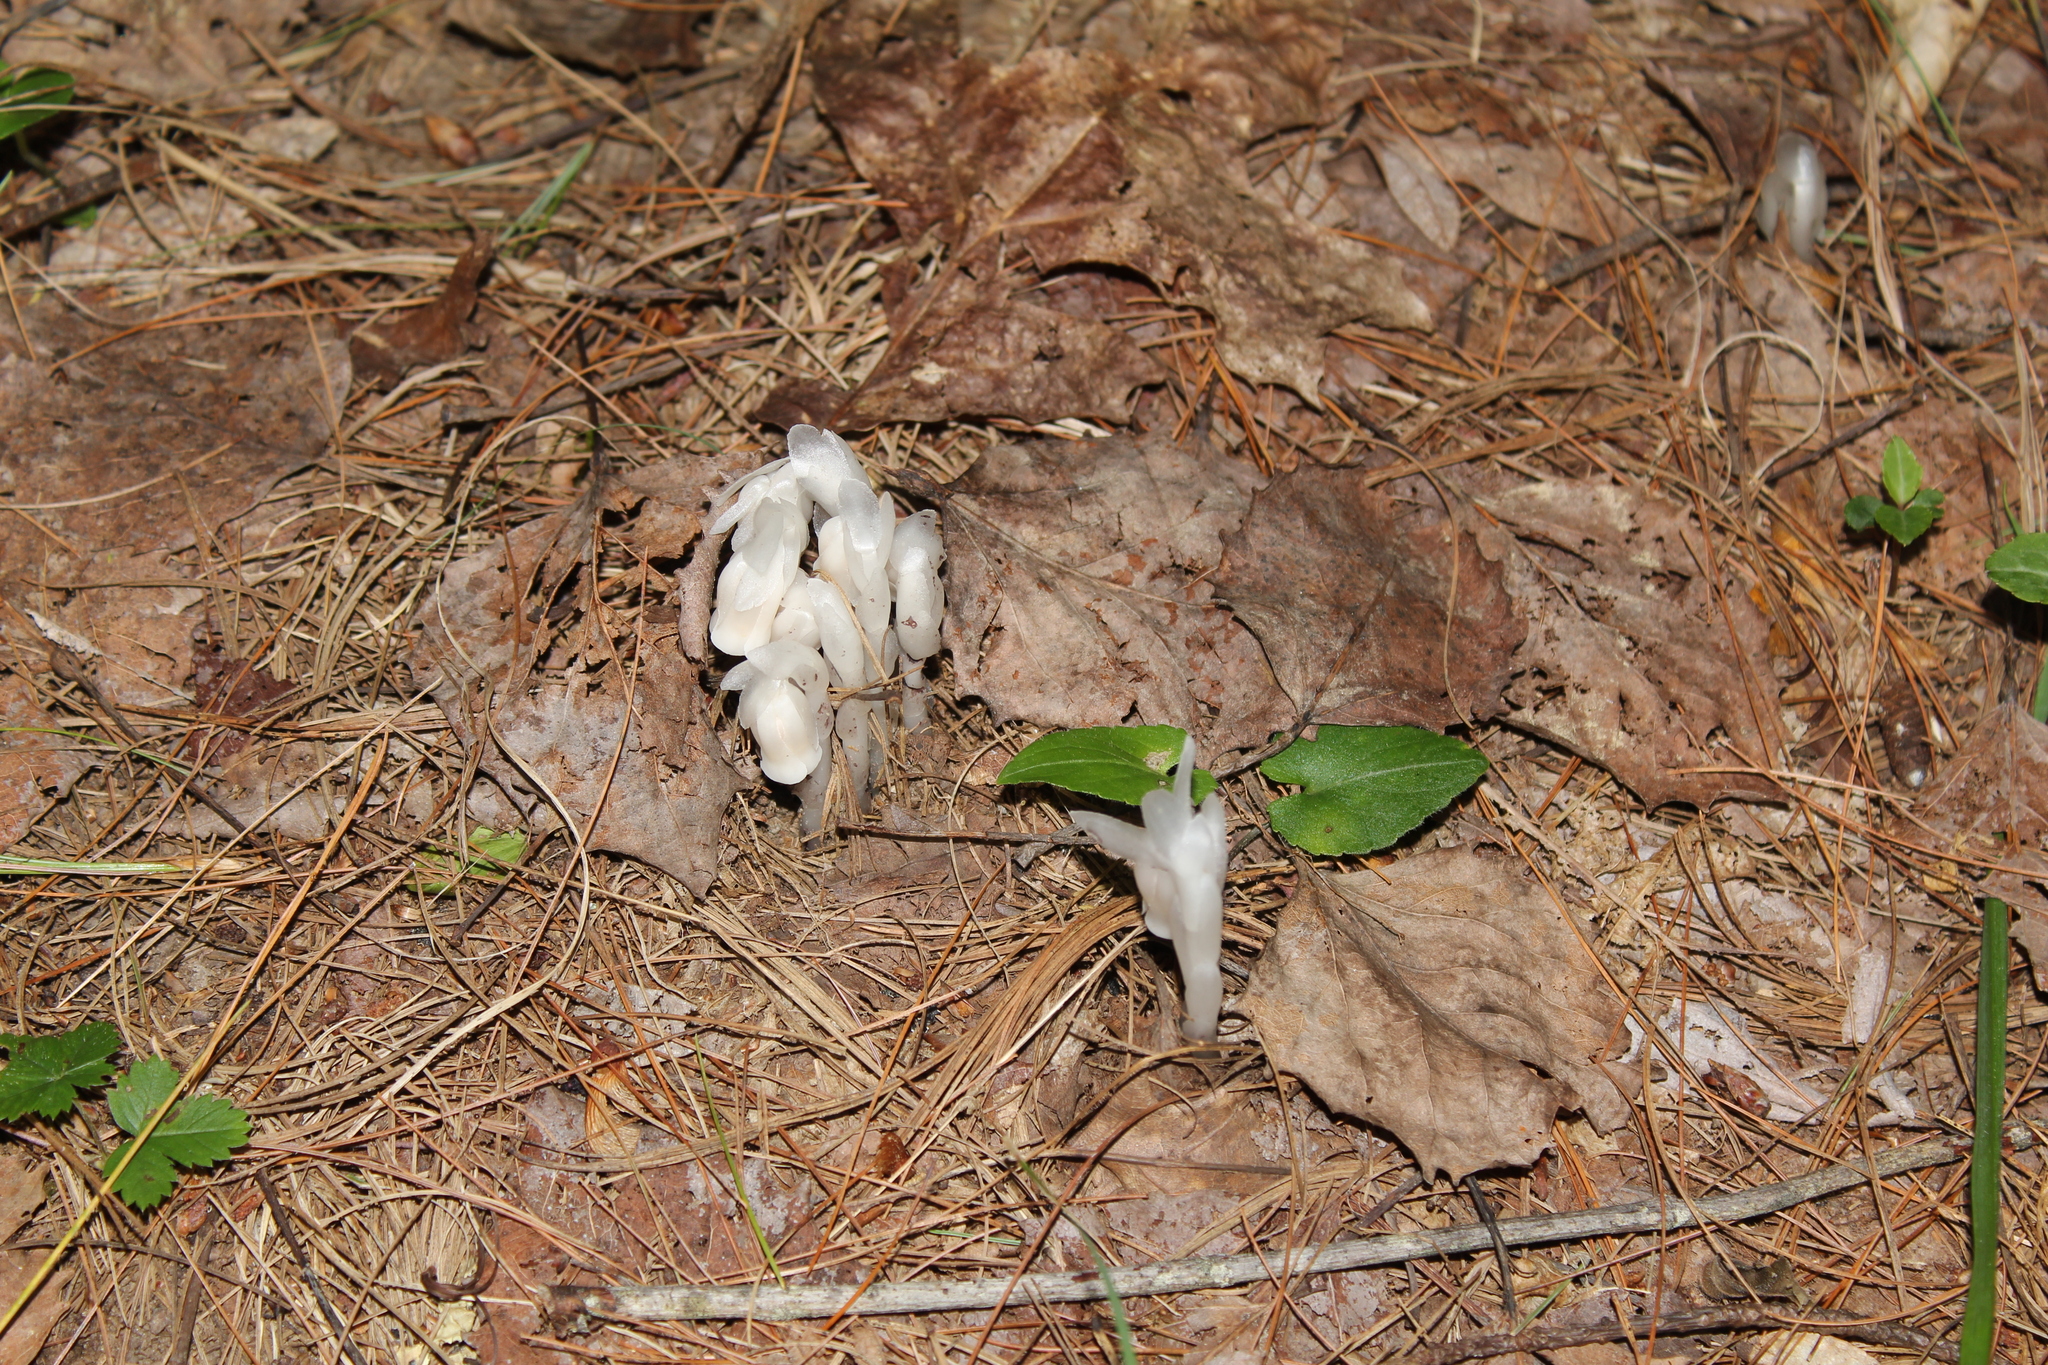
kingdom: Plantae
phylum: Tracheophyta
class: Magnoliopsida
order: Ericales
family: Ericaceae
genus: Monotropa
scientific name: Monotropa uniflora
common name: Convulsion root
